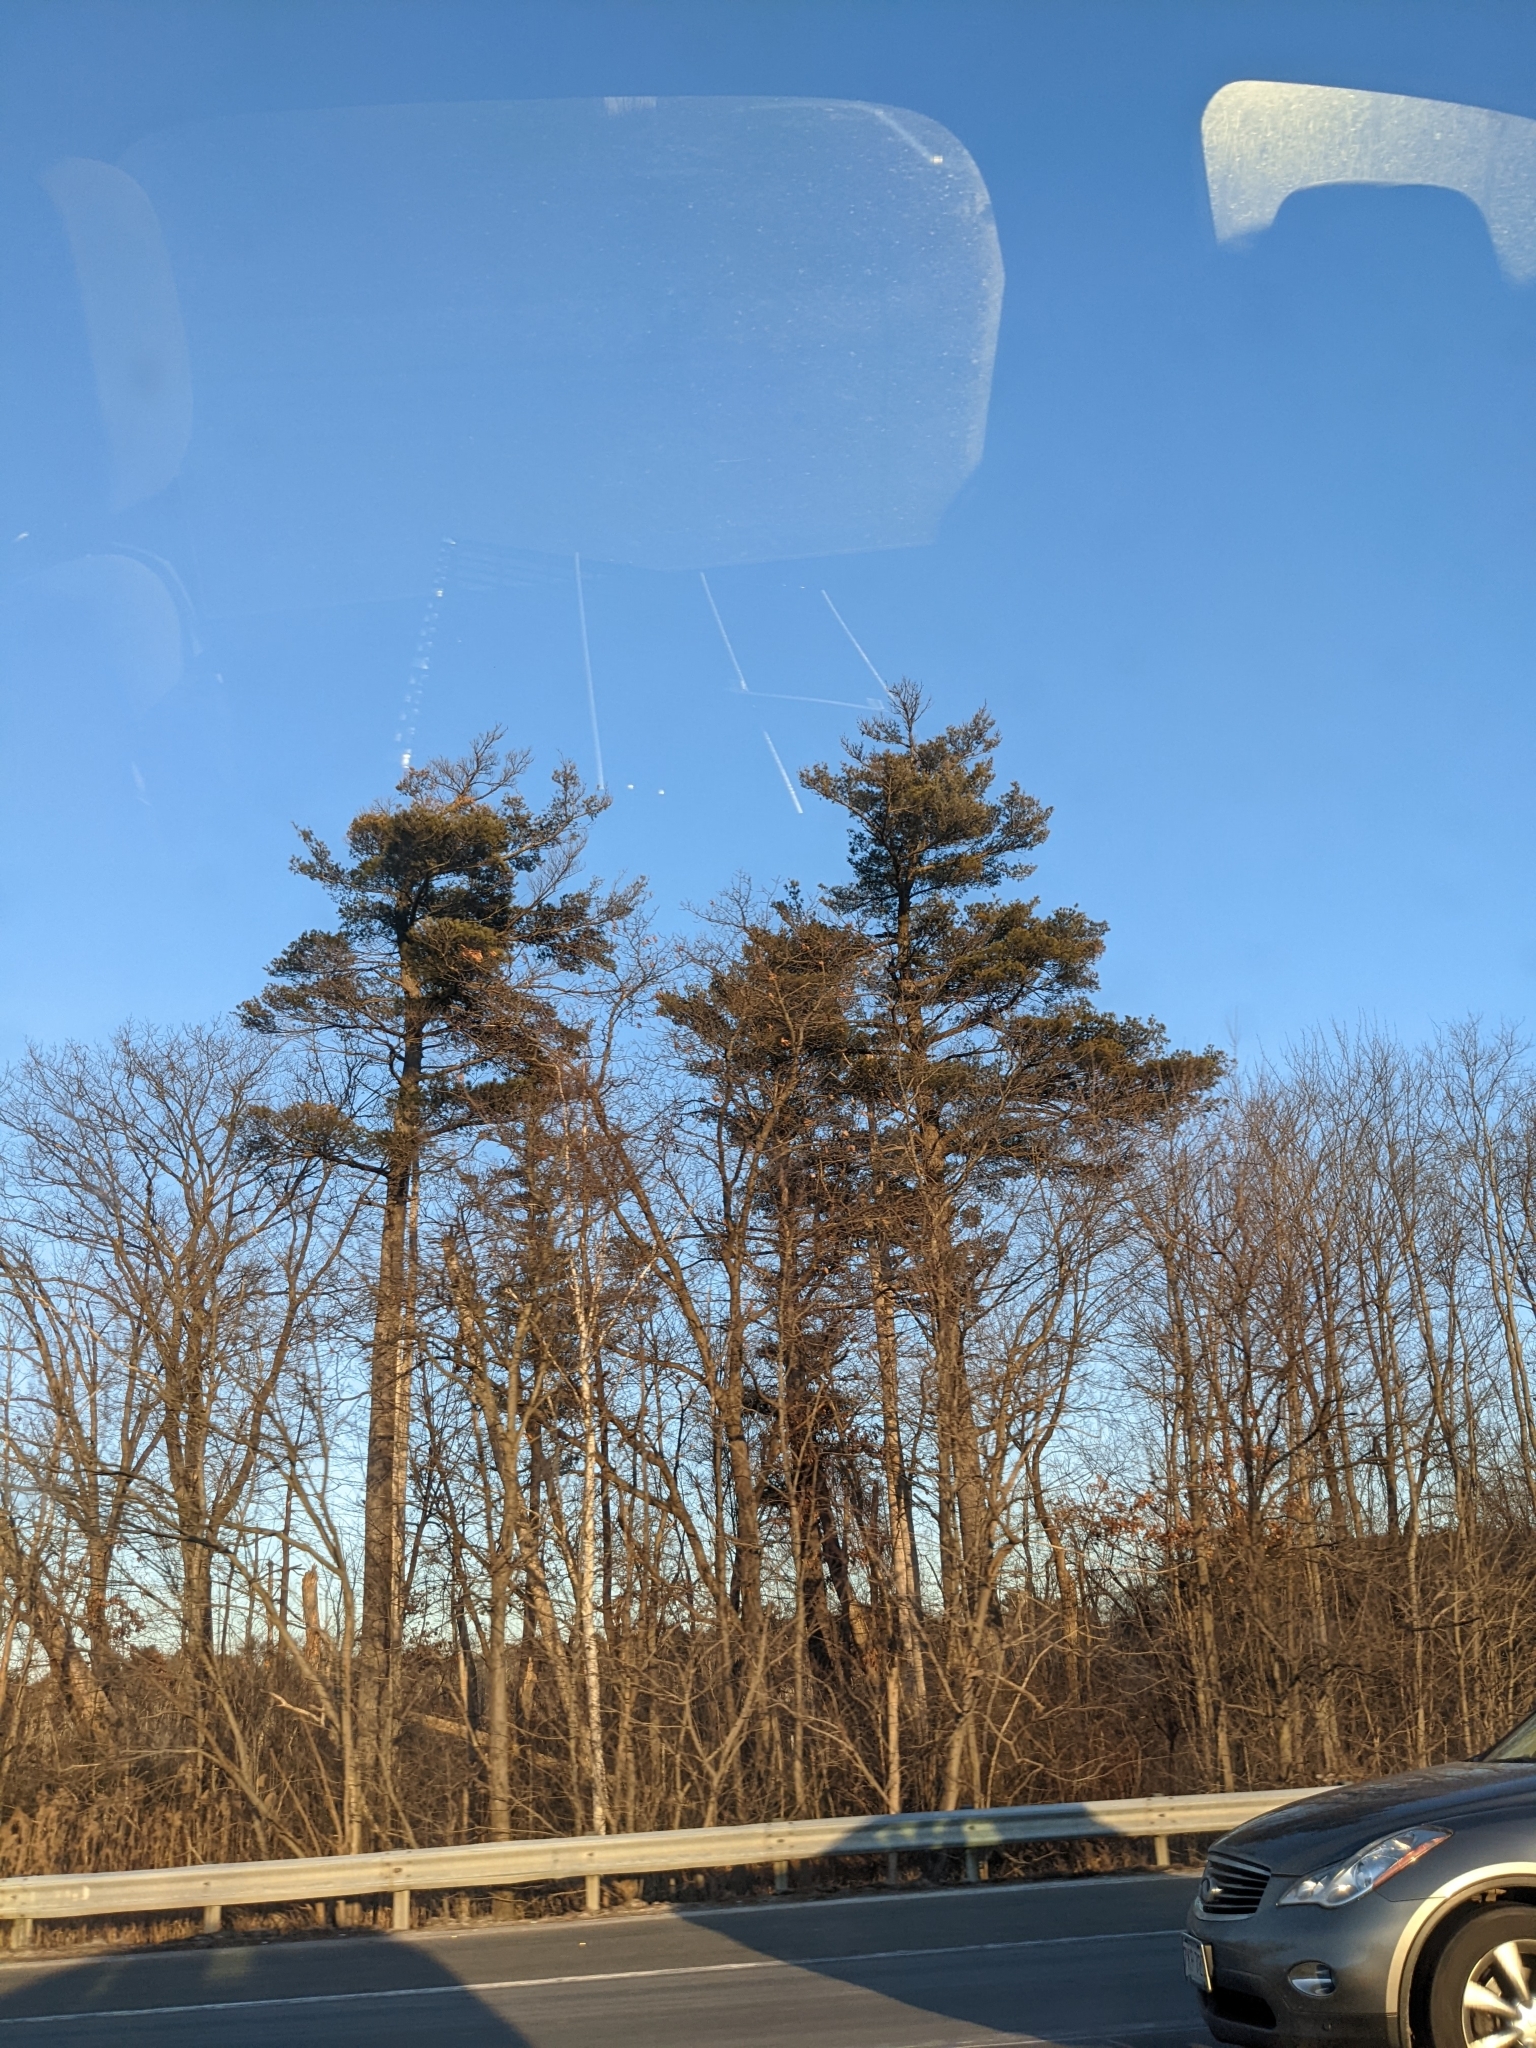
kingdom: Plantae
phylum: Tracheophyta
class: Pinopsida
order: Pinales
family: Pinaceae
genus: Pinus
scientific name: Pinus strobus
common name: Weymouth pine
